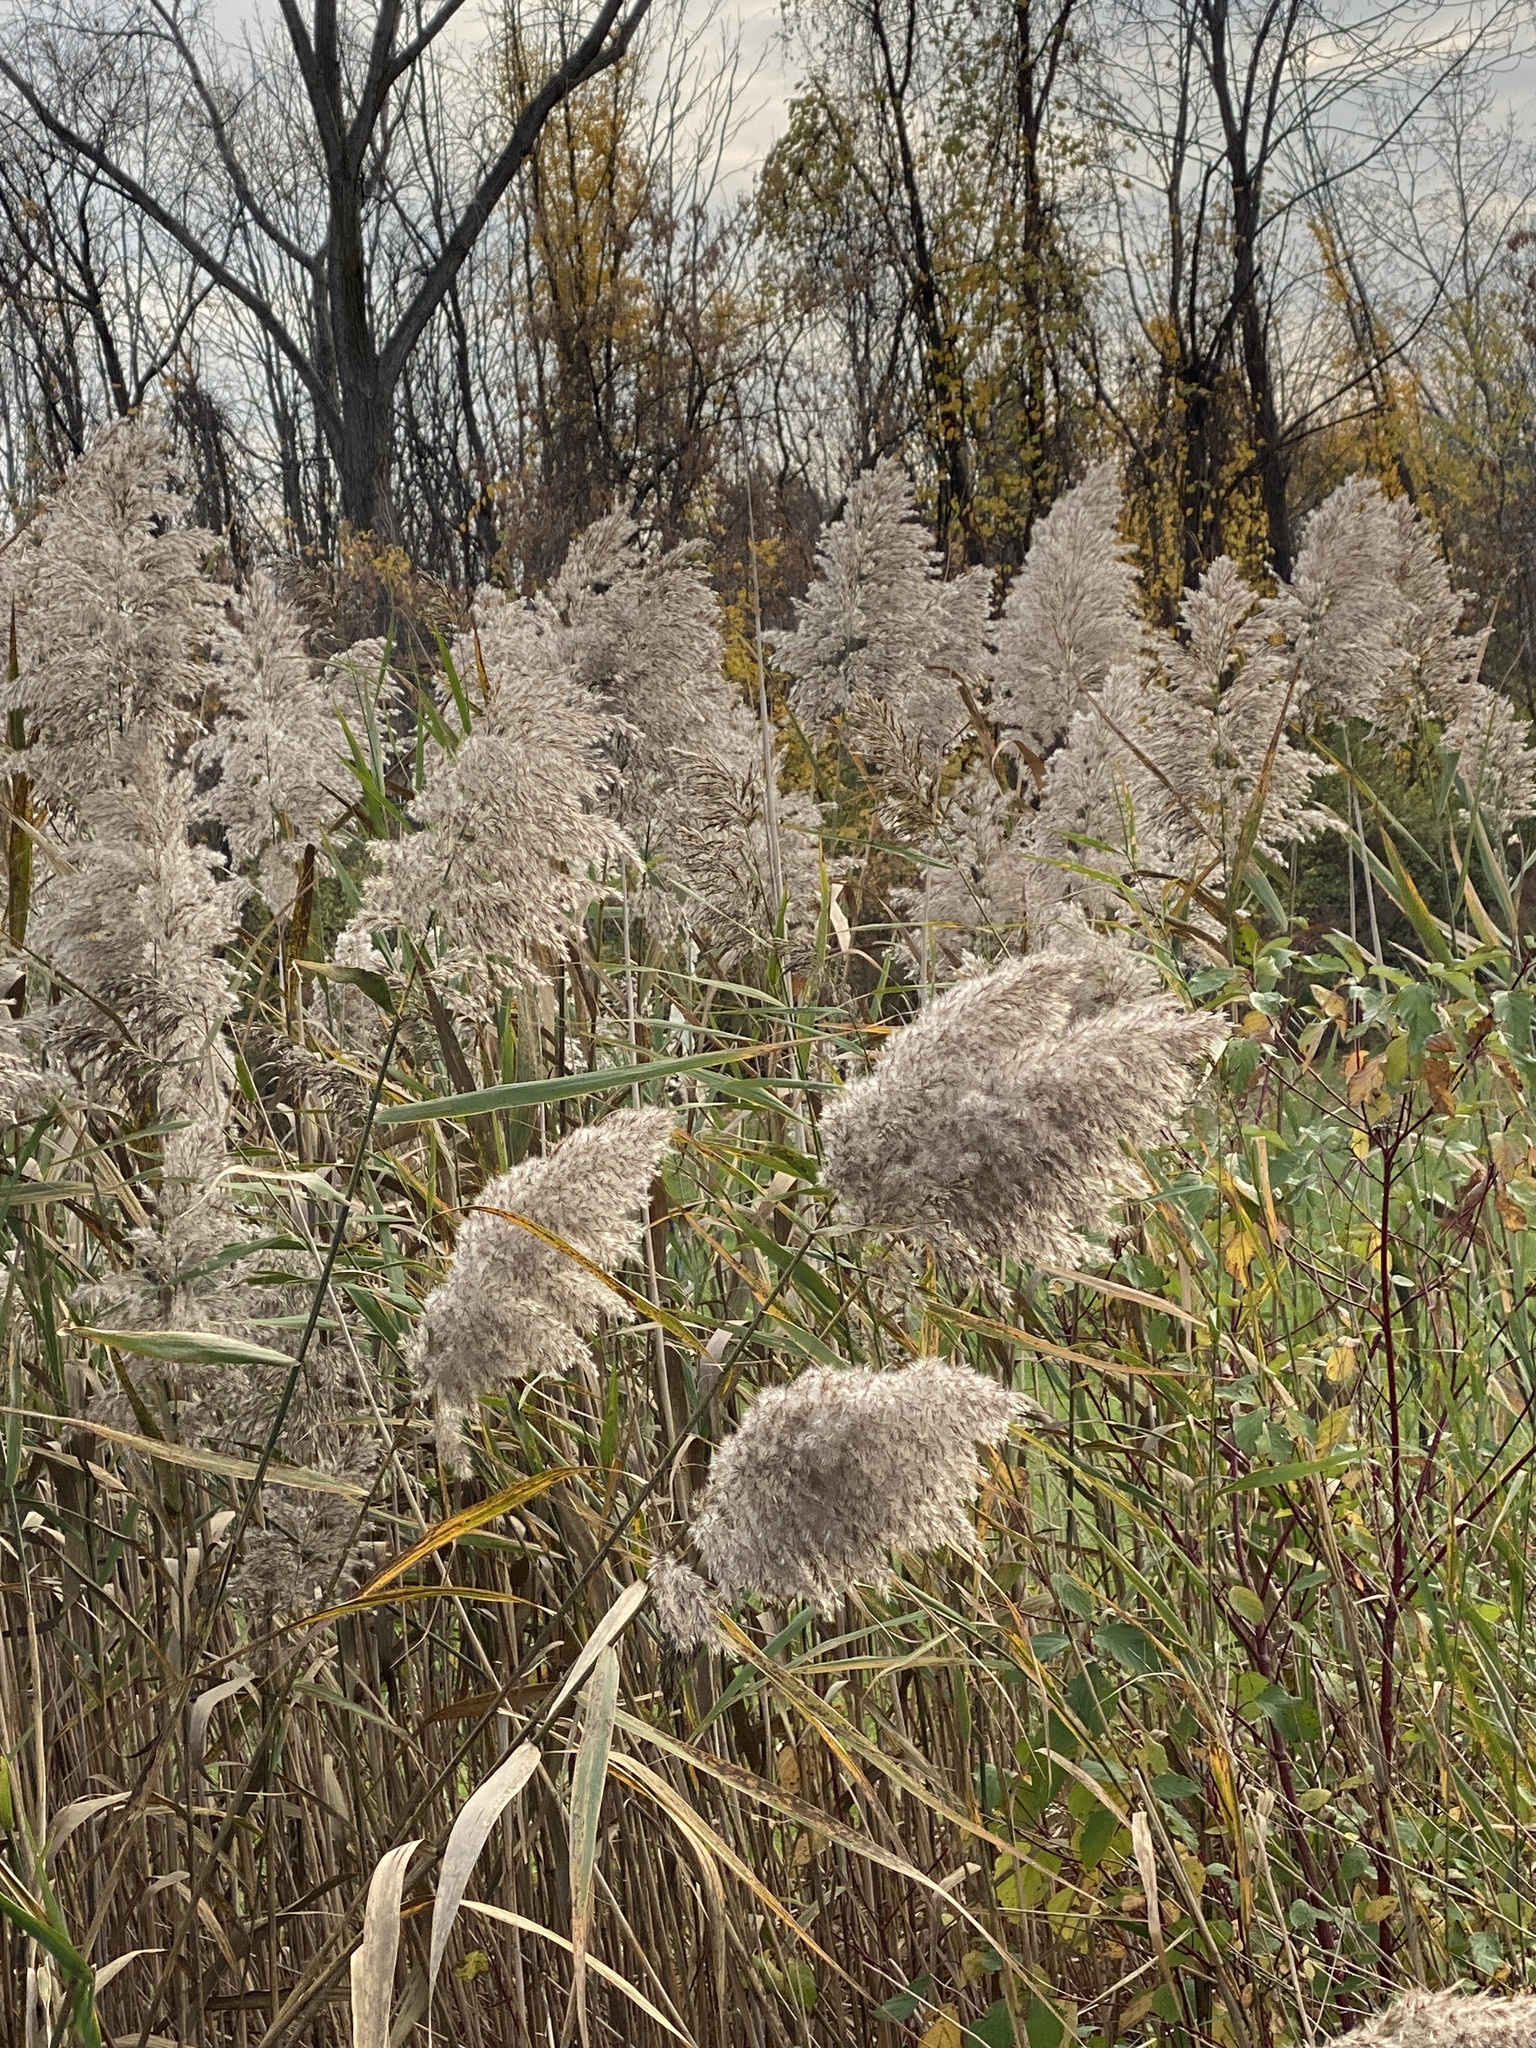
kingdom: Plantae
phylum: Tracheophyta
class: Liliopsida
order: Poales
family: Poaceae
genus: Phragmites
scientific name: Phragmites australis
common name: Common reed
